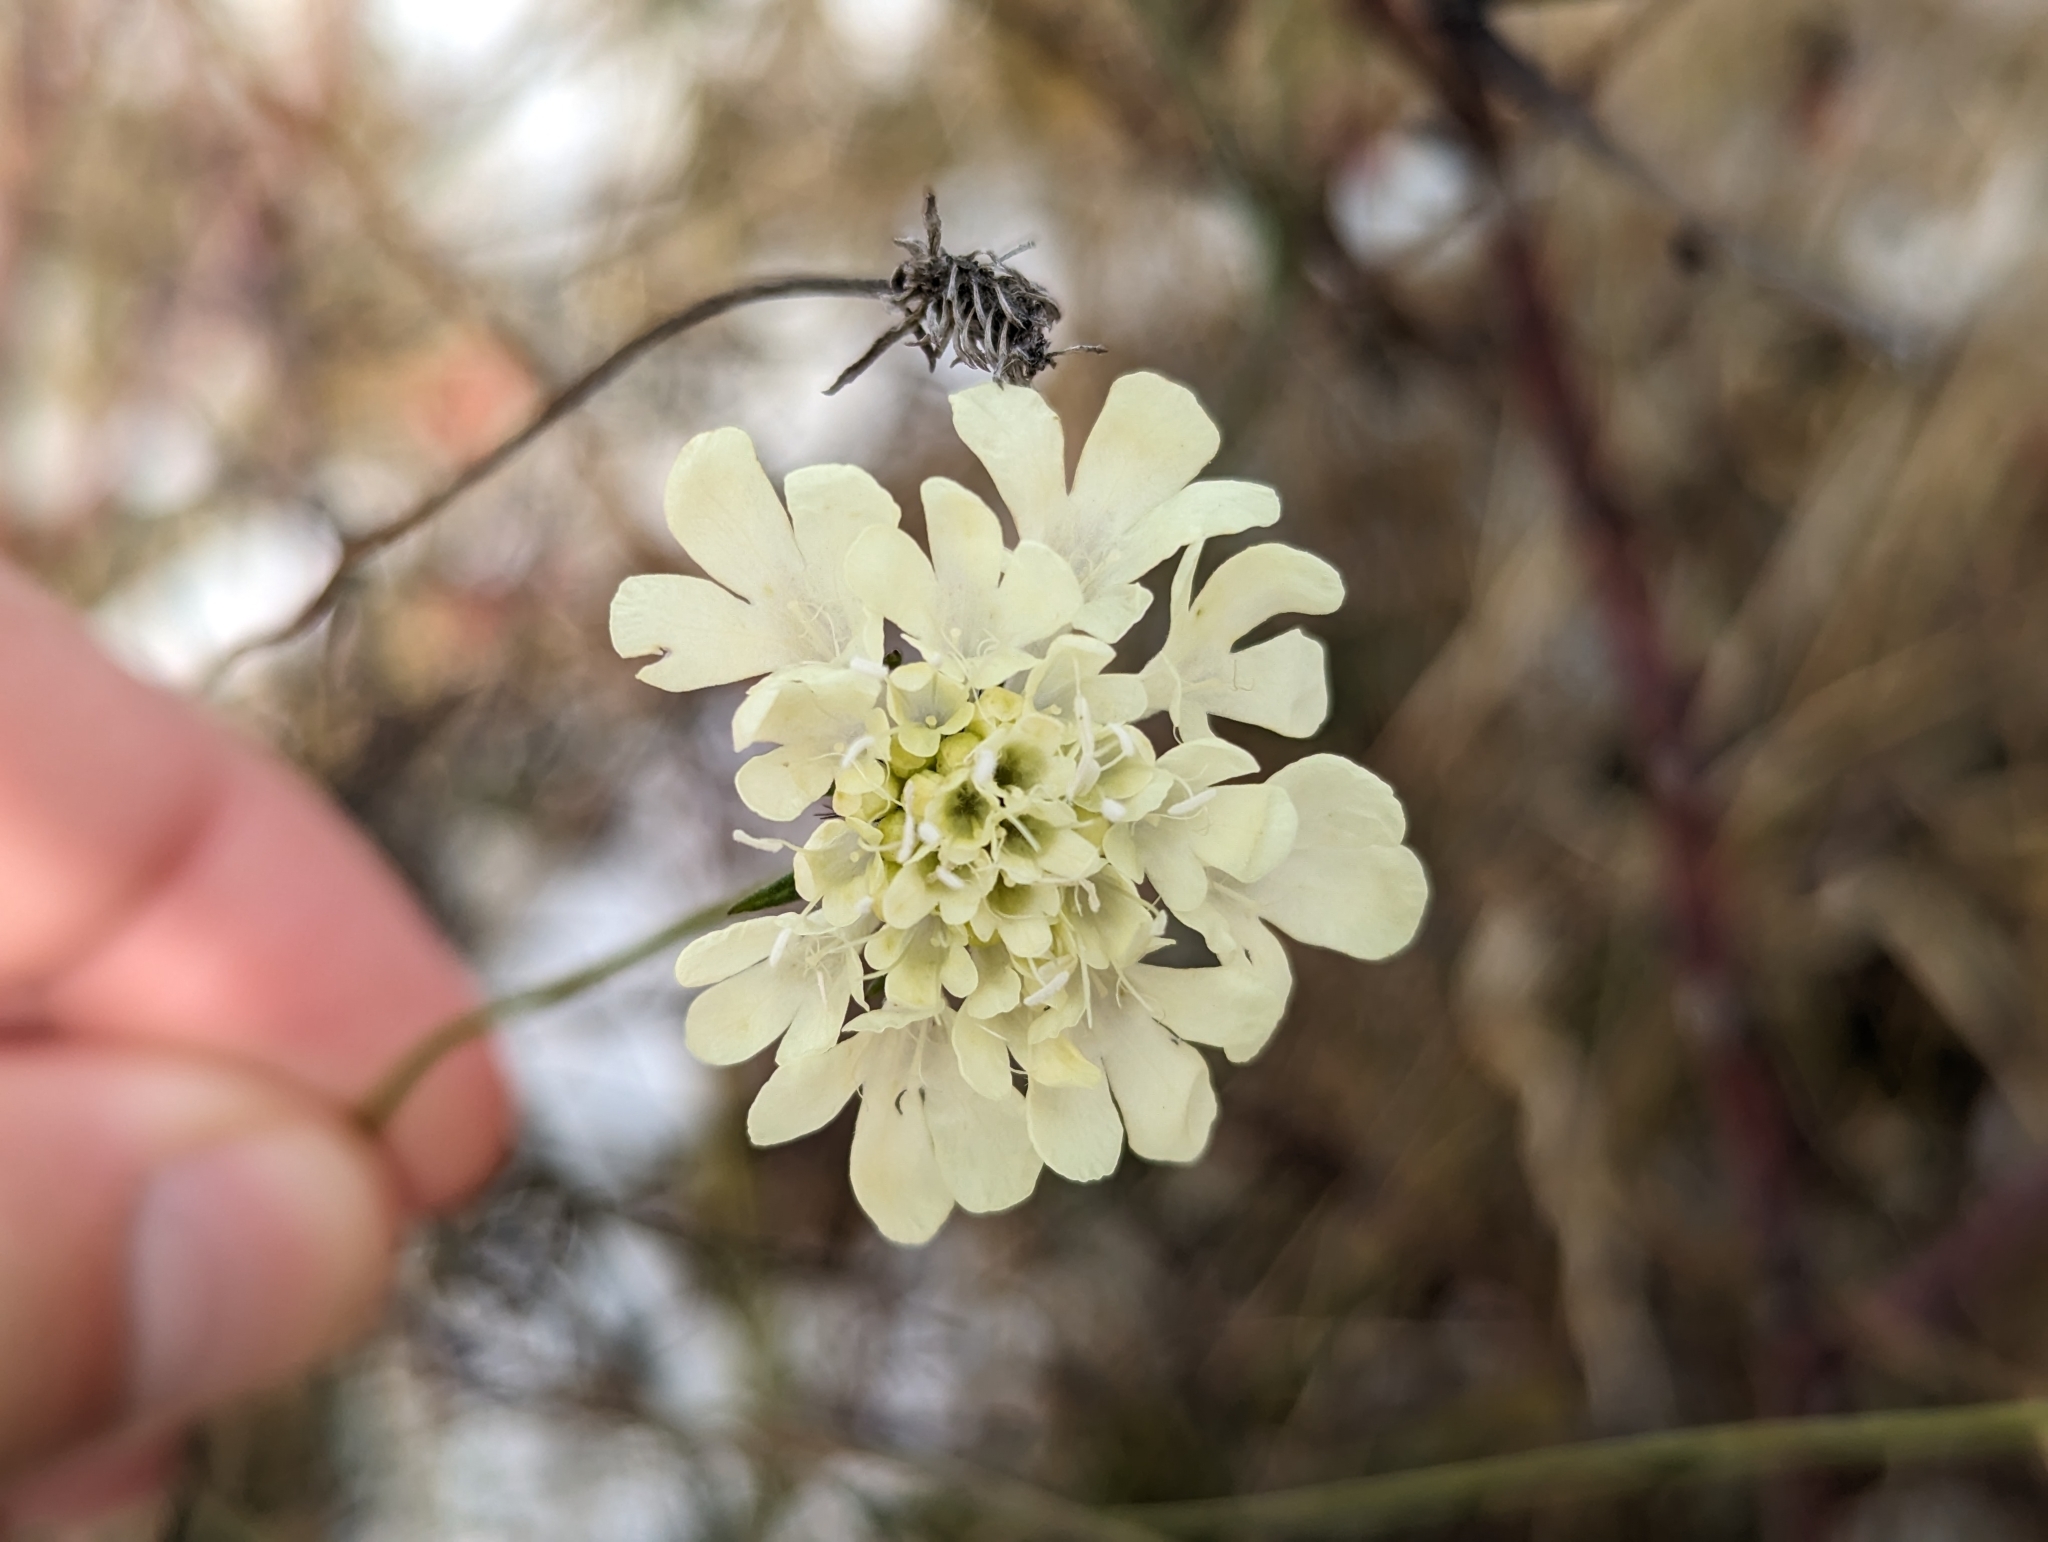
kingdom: Plantae
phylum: Tracheophyta
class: Magnoliopsida
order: Dipsacales
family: Caprifoliaceae
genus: Scabiosa
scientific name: Scabiosa ochroleuca
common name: Cream pincushions
